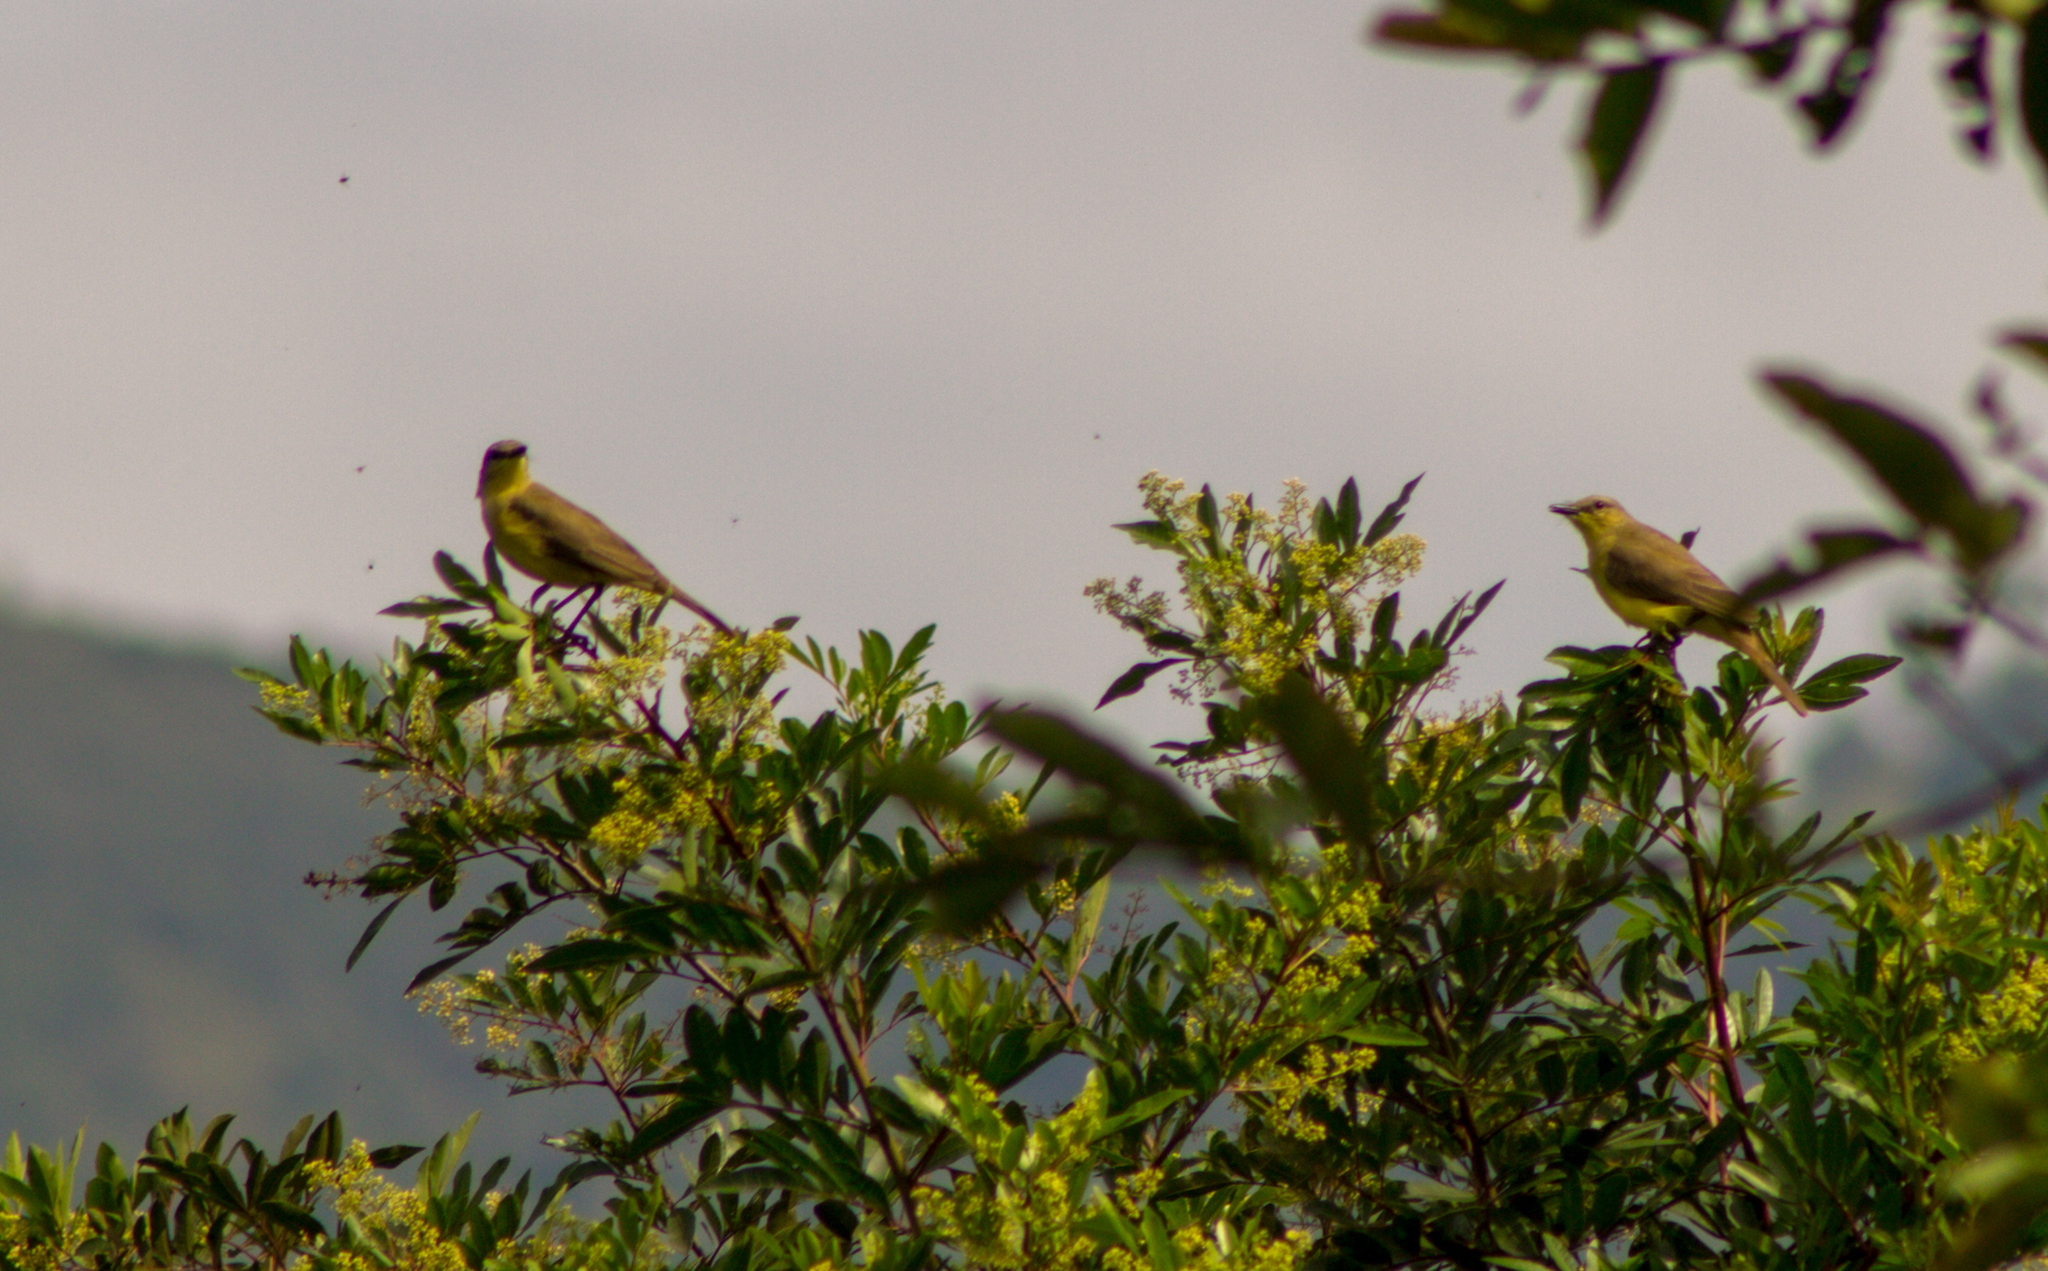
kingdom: Animalia
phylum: Chordata
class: Aves
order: Passeriformes
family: Tyrannidae
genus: Machetornis
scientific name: Machetornis rixosa
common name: Cattle tyrant
